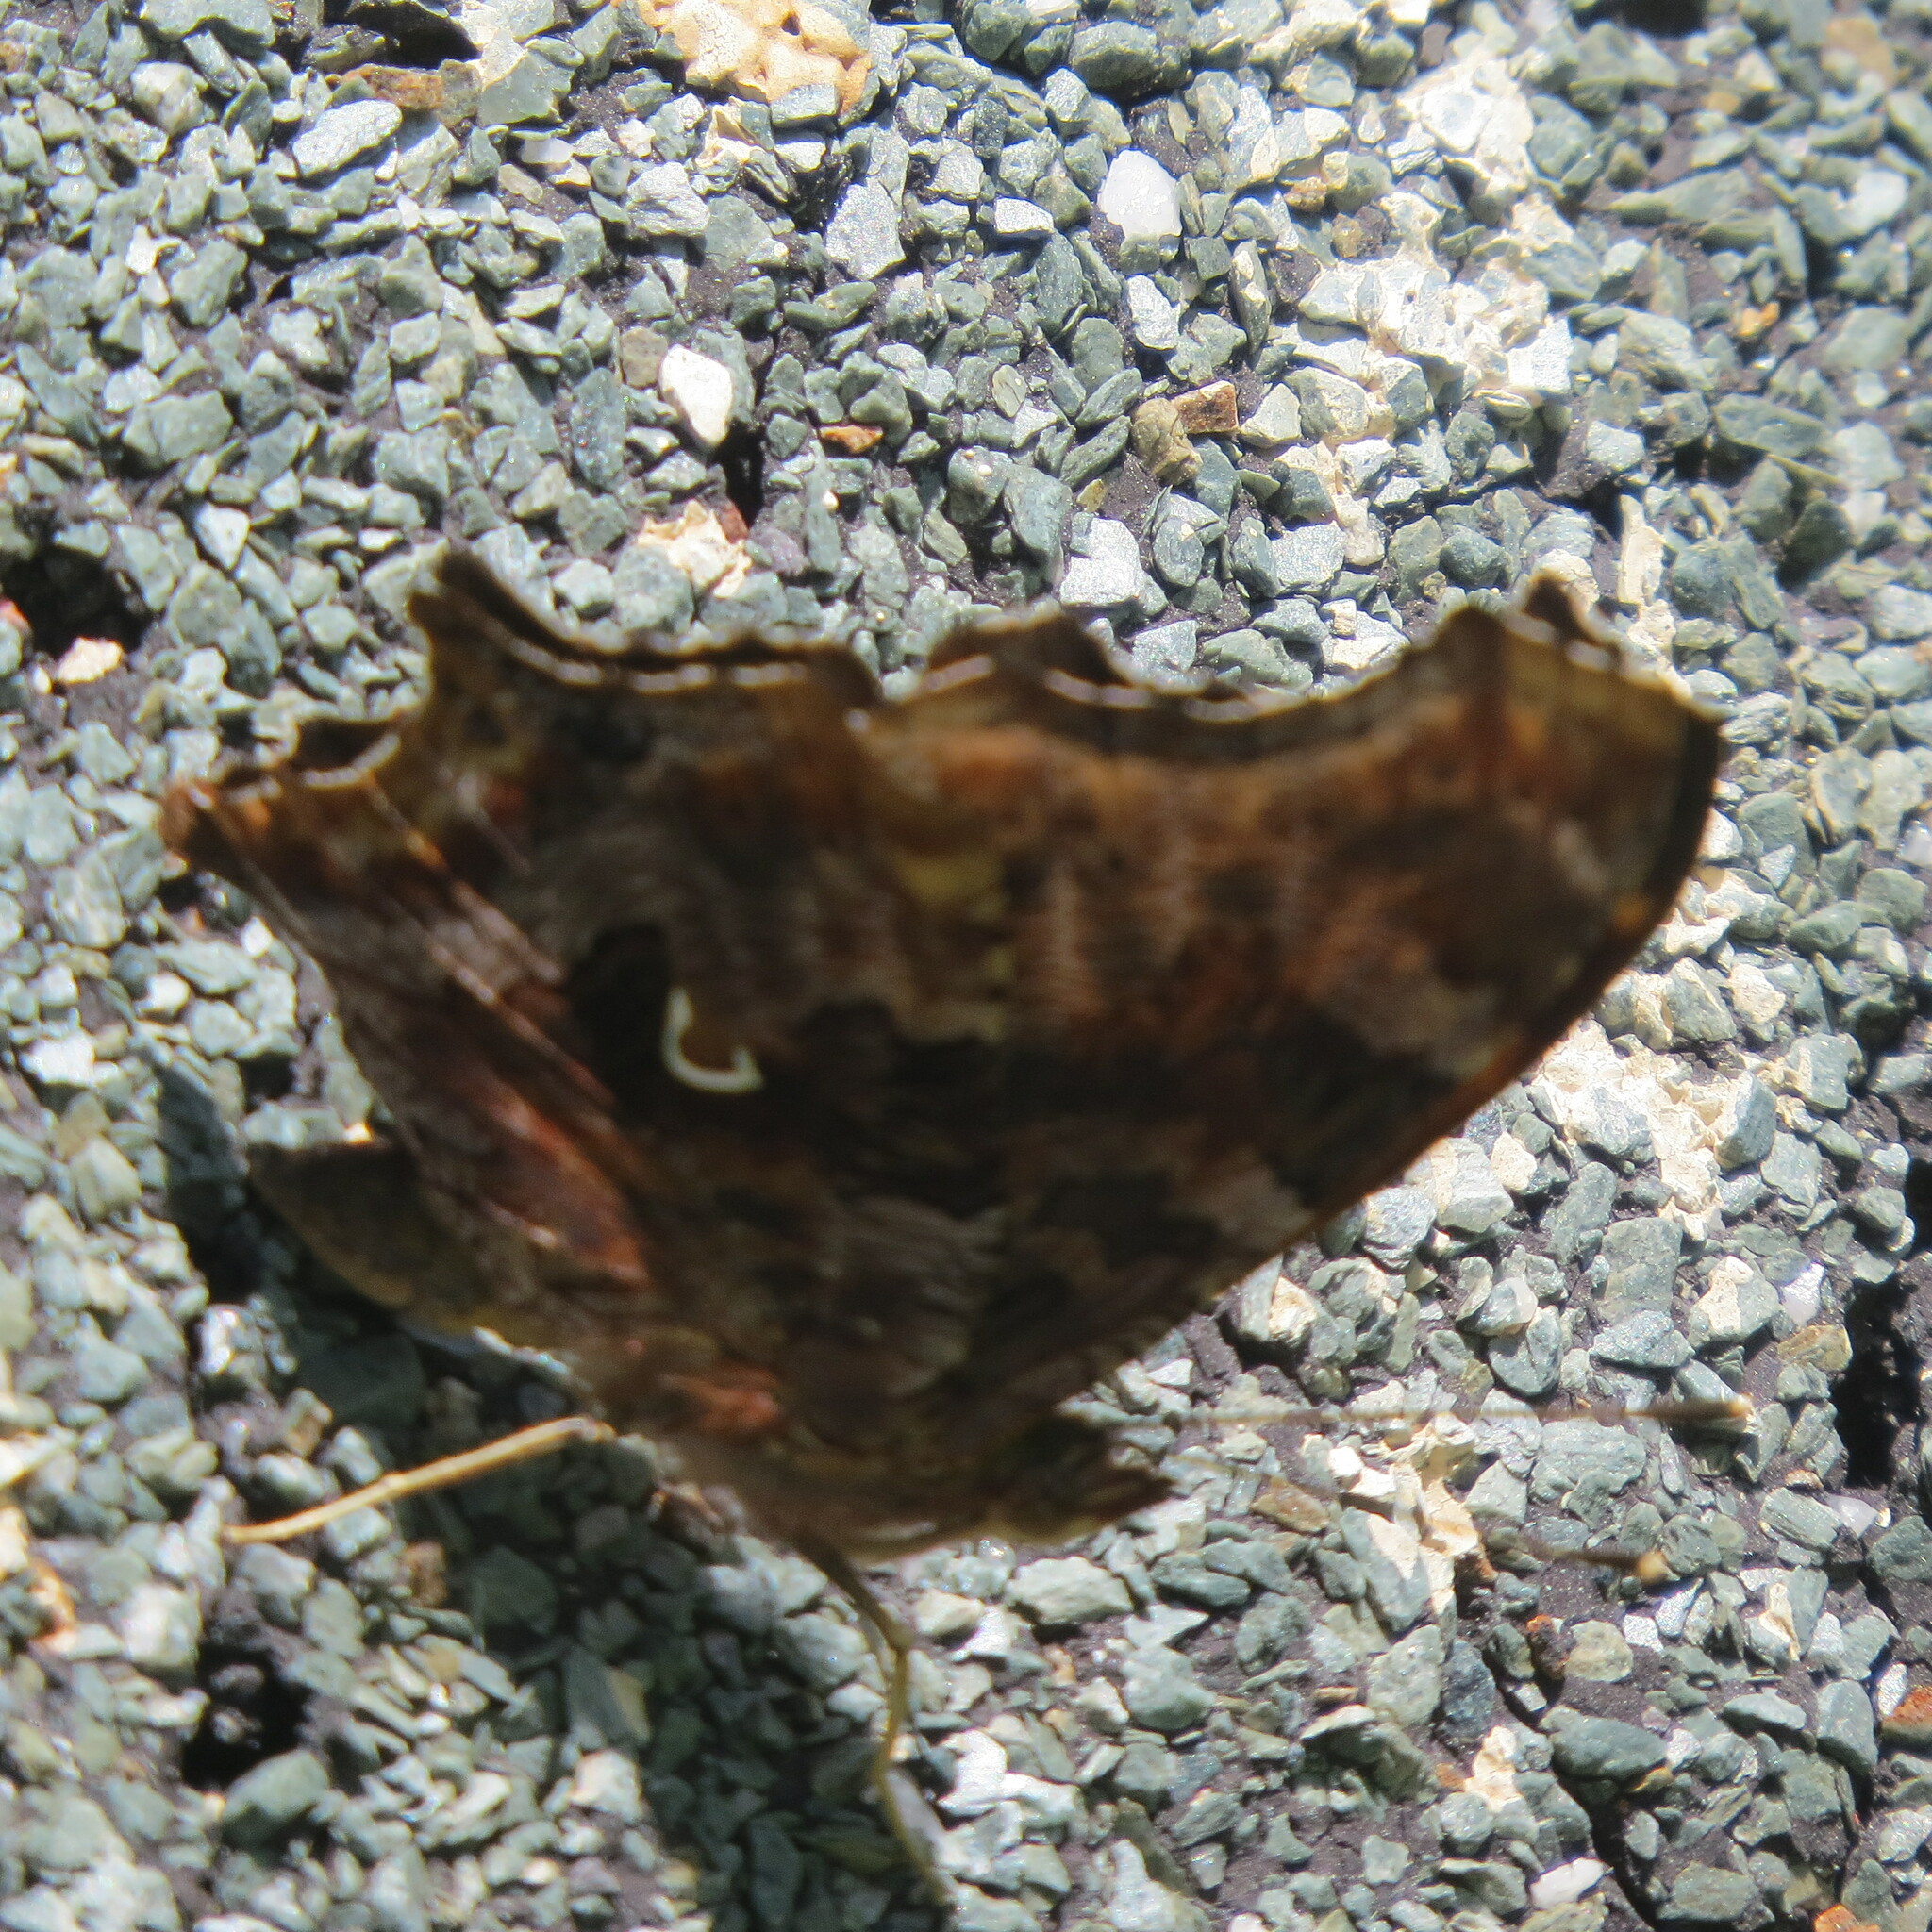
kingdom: Animalia
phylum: Arthropoda
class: Insecta
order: Lepidoptera
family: Nymphalidae
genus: Polygonia
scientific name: Polygonia comma
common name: Eastern comma
